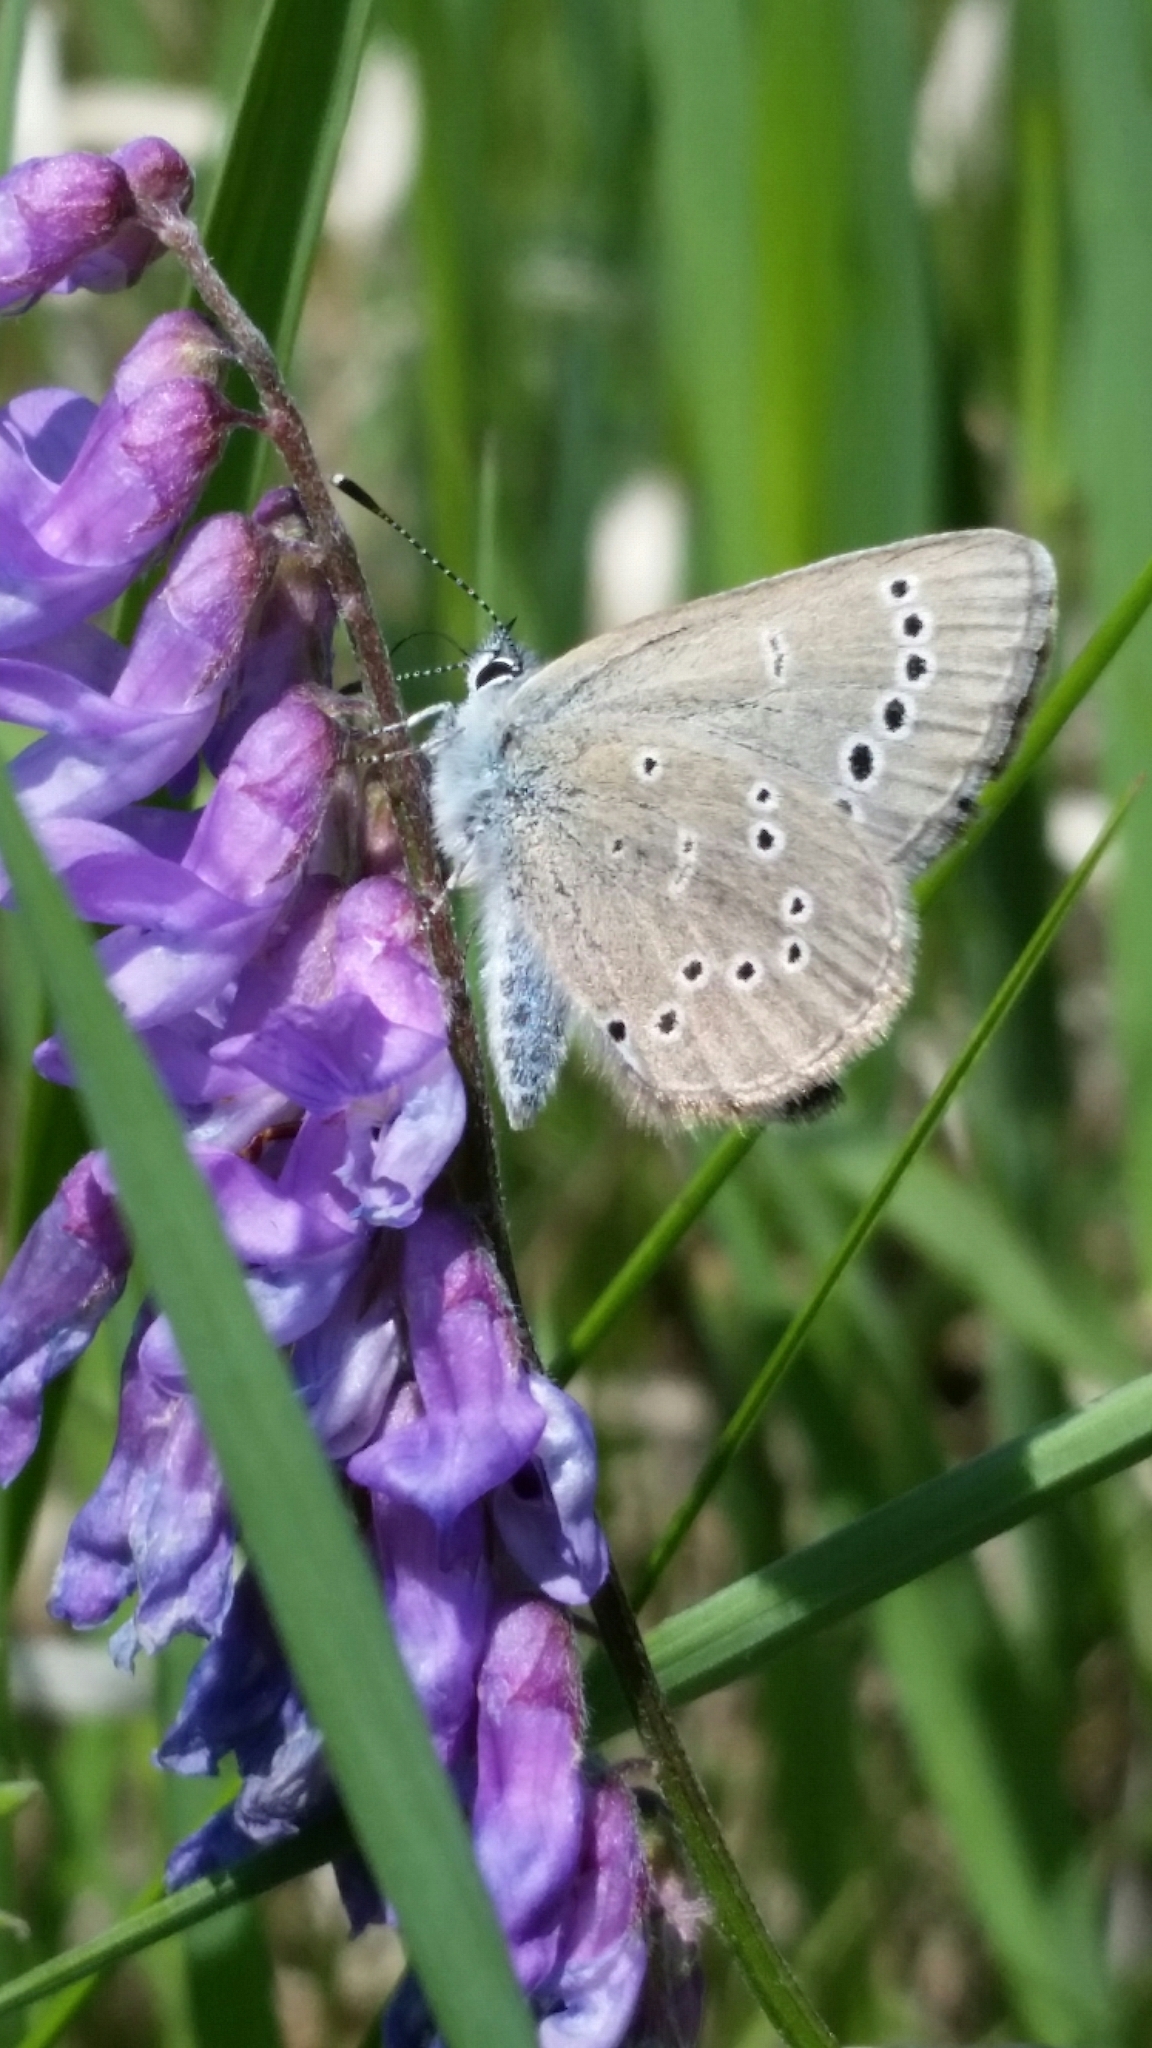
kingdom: Animalia
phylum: Arthropoda
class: Insecta
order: Lepidoptera
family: Lycaenidae
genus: Glaucopsyche
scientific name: Glaucopsyche lygdamus
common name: Silvery blue
